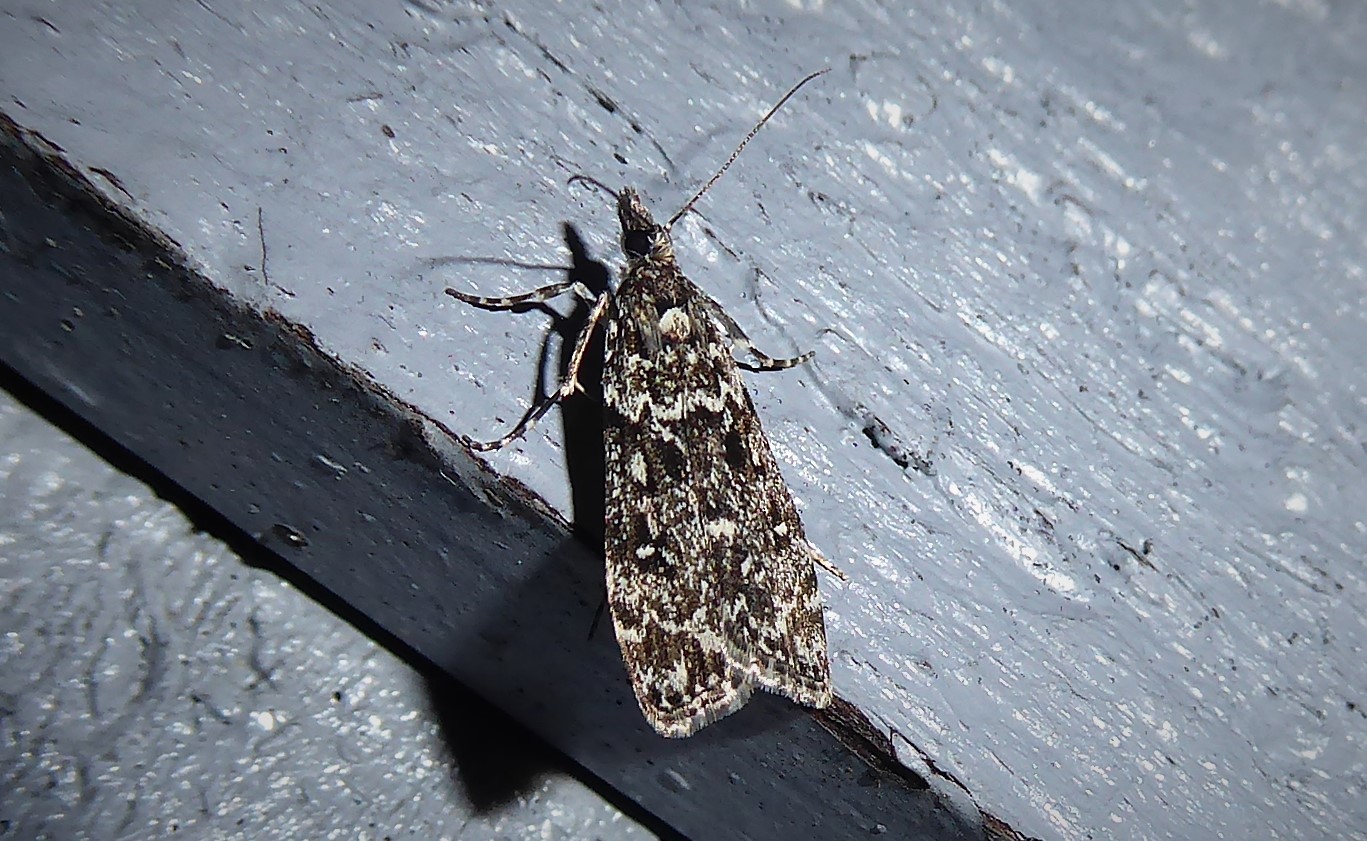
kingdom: Animalia
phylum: Arthropoda
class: Insecta
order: Lepidoptera
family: Crambidae
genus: Eudonia
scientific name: Eudonia philerga
